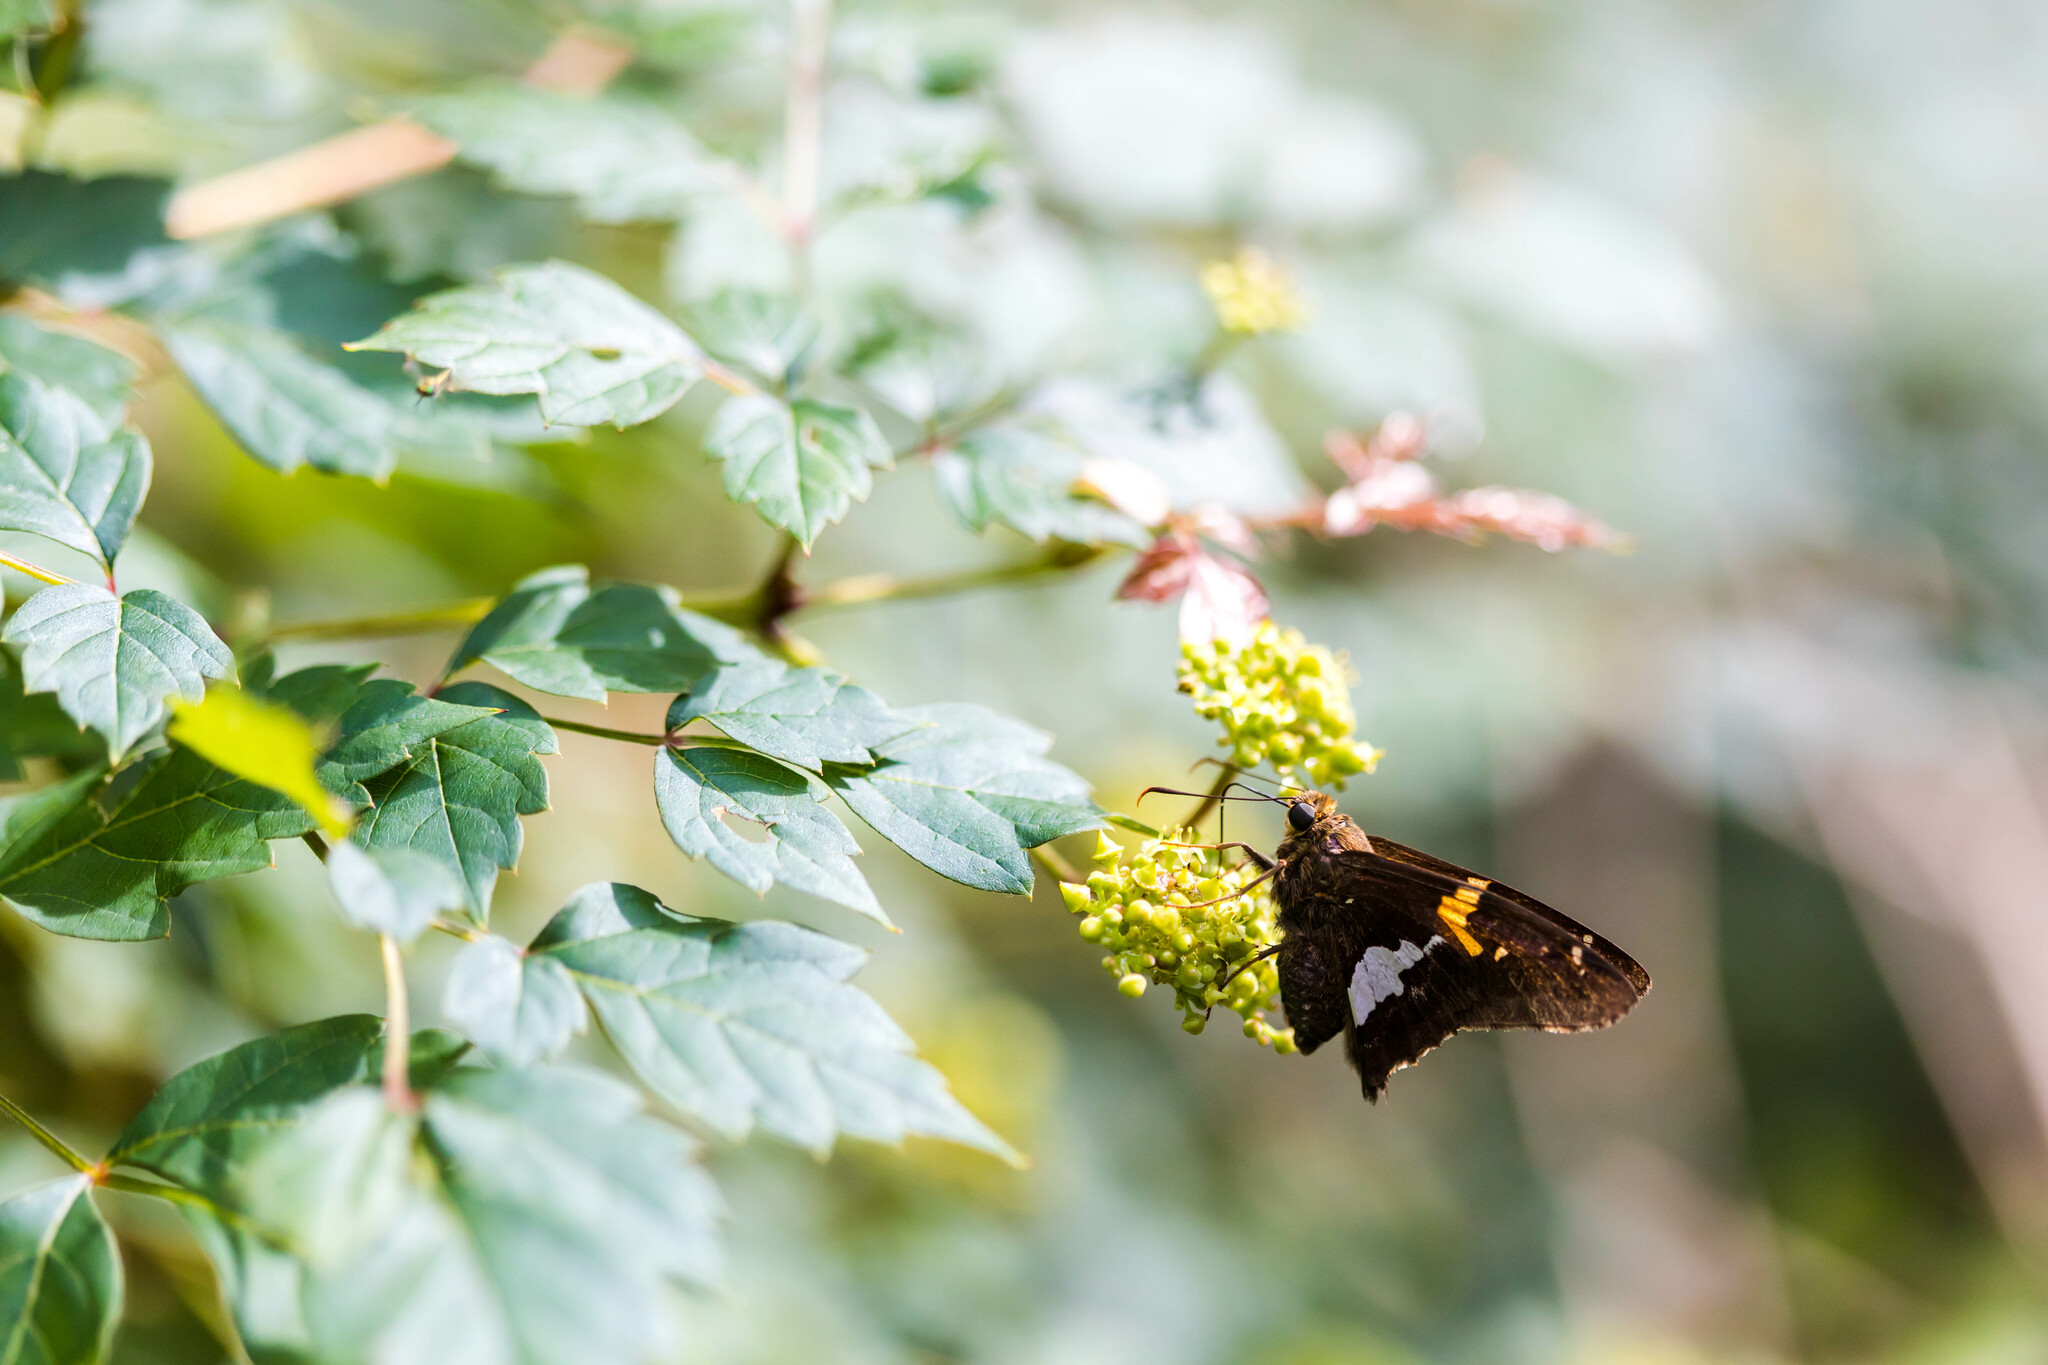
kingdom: Animalia
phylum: Arthropoda
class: Insecta
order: Lepidoptera
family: Hesperiidae
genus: Epargyreus
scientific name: Epargyreus clarus
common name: Silver-spotted skipper
